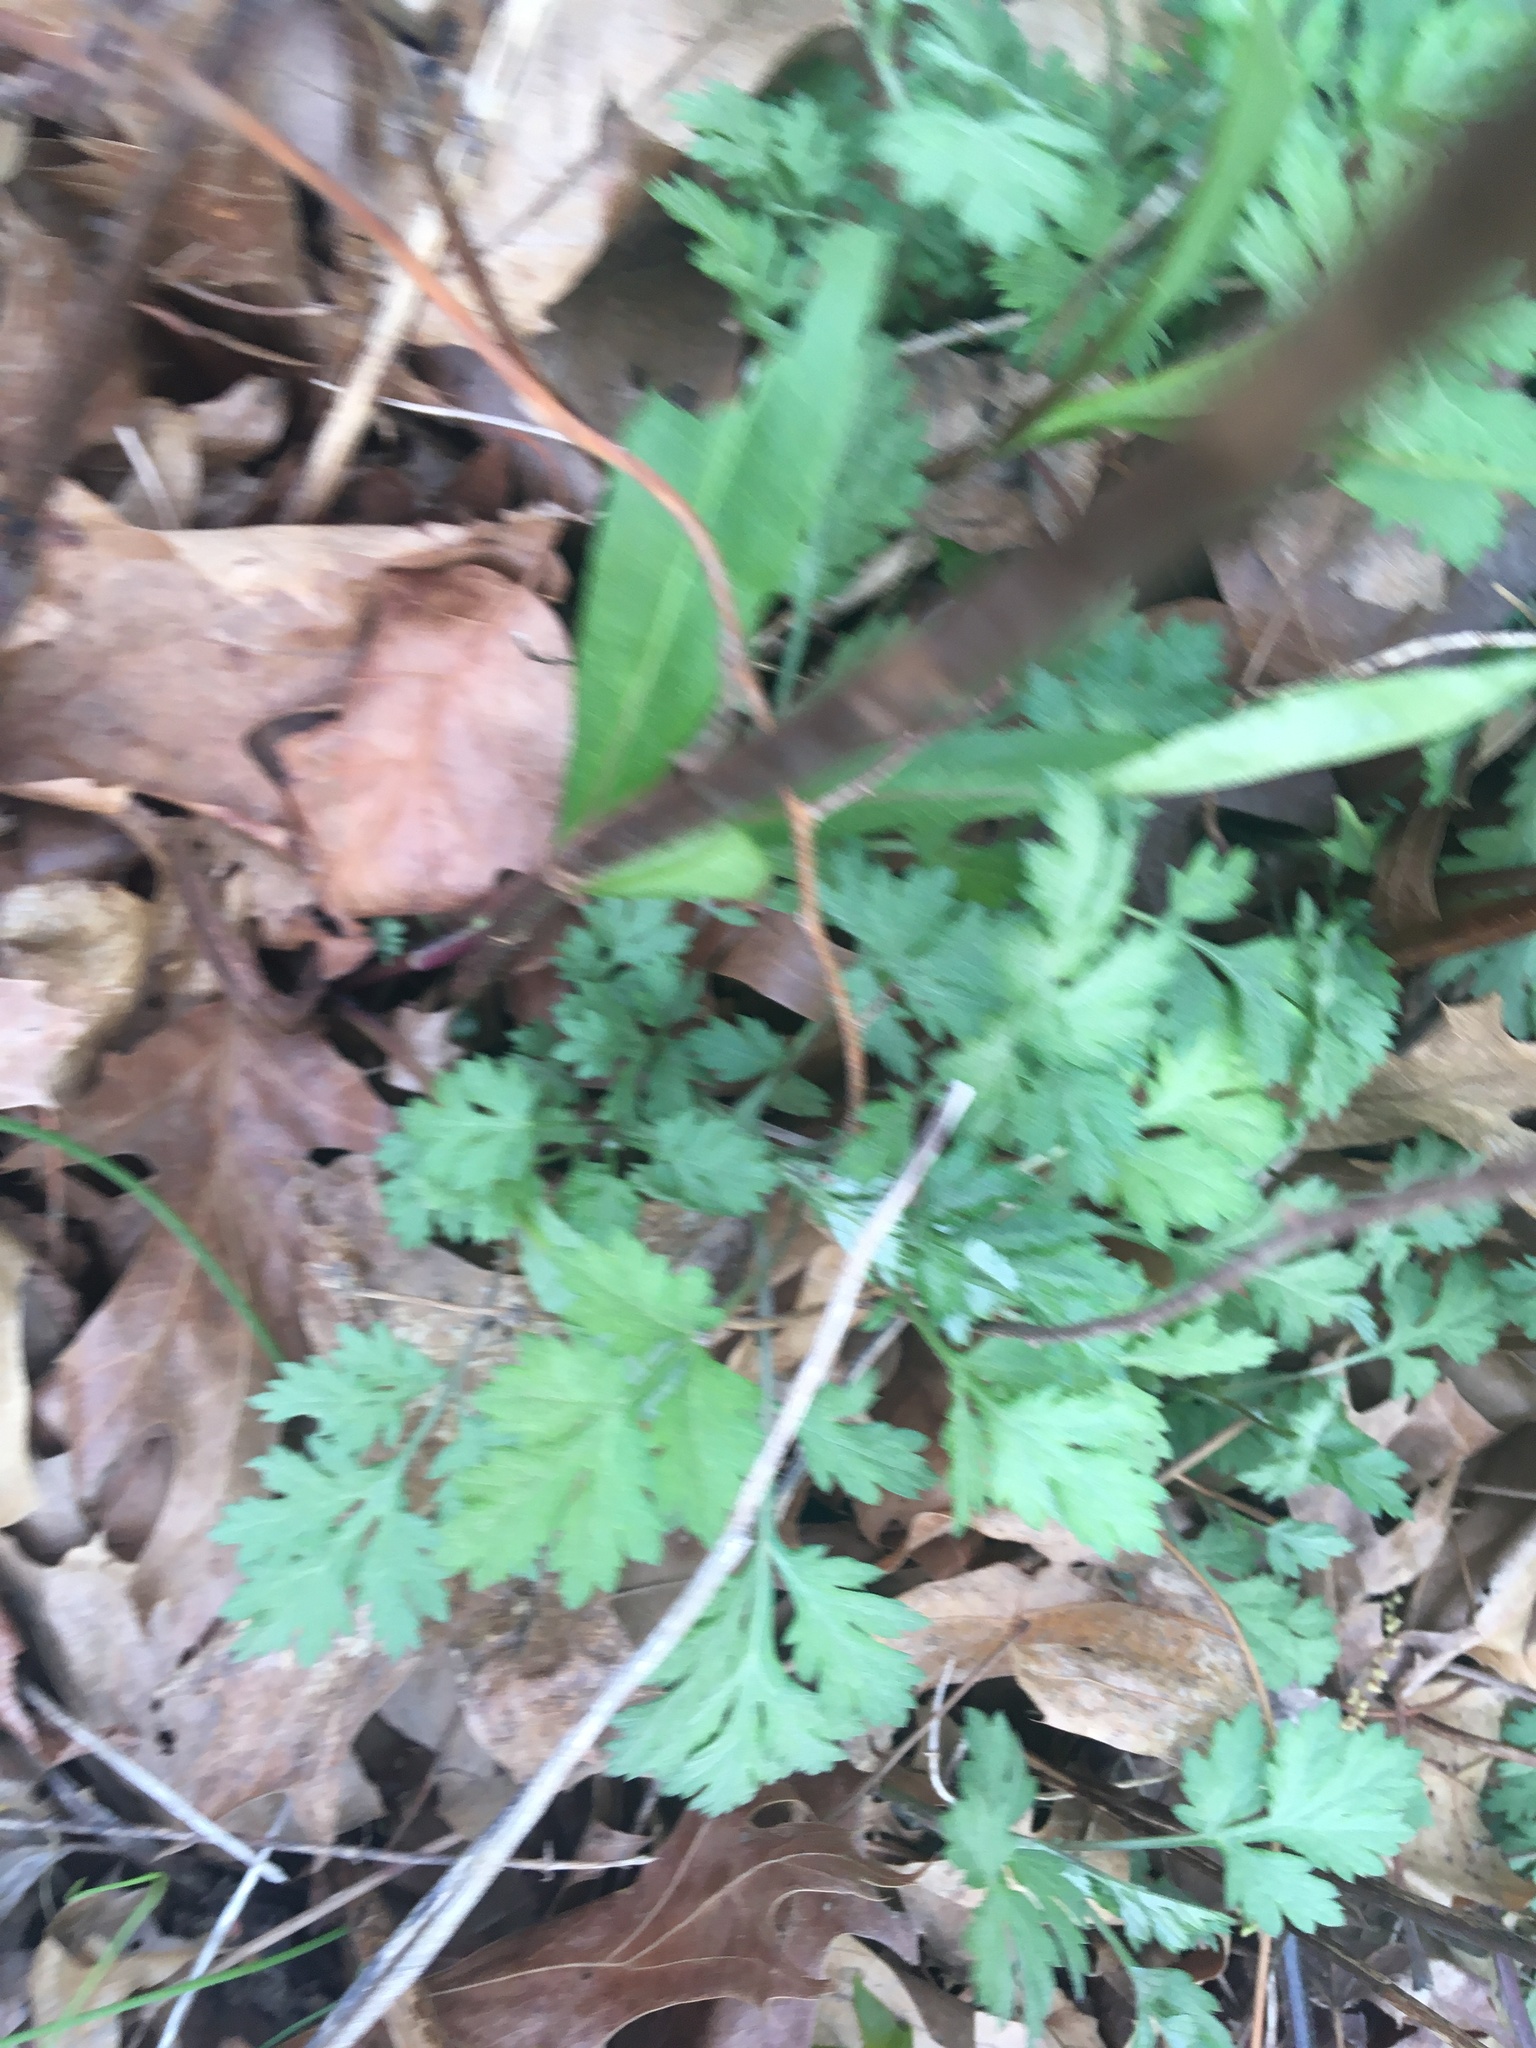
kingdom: Plantae
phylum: Tracheophyta
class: Magnoliopsida
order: Asterales
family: Asteraceae
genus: Artemisia
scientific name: Artemisia vulgaris
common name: Mugwort
